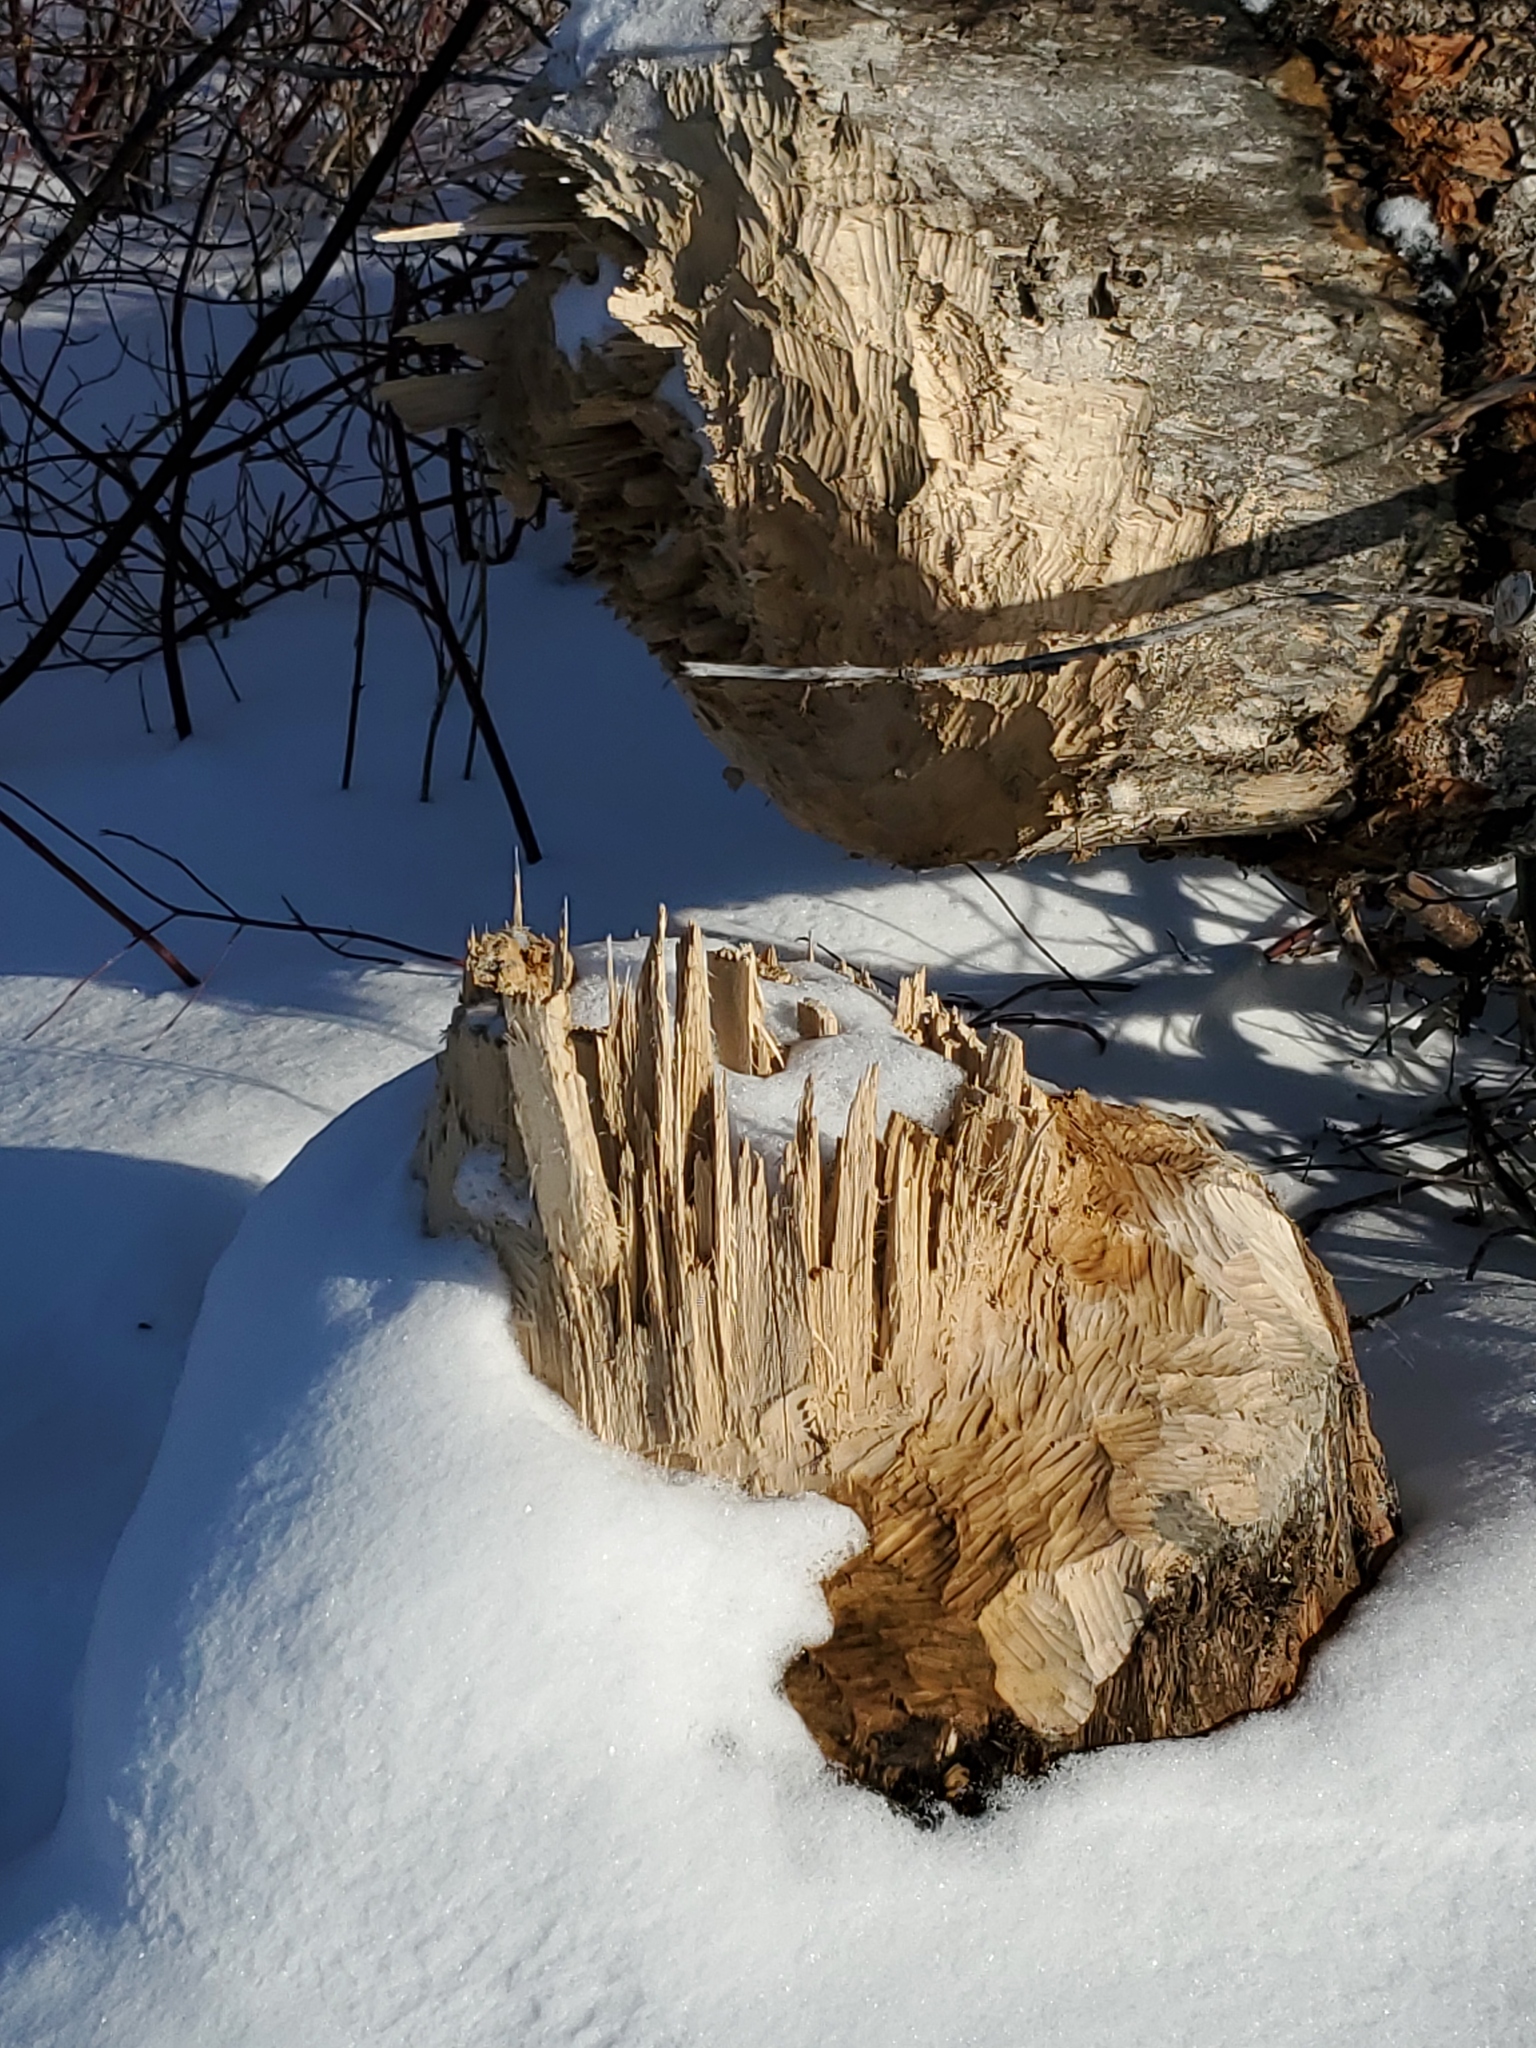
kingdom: Animalia
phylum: Chordata
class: Mammalia
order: Rodentia
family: Castoridae
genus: Castor
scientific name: Castor canadensis
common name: American beaver
